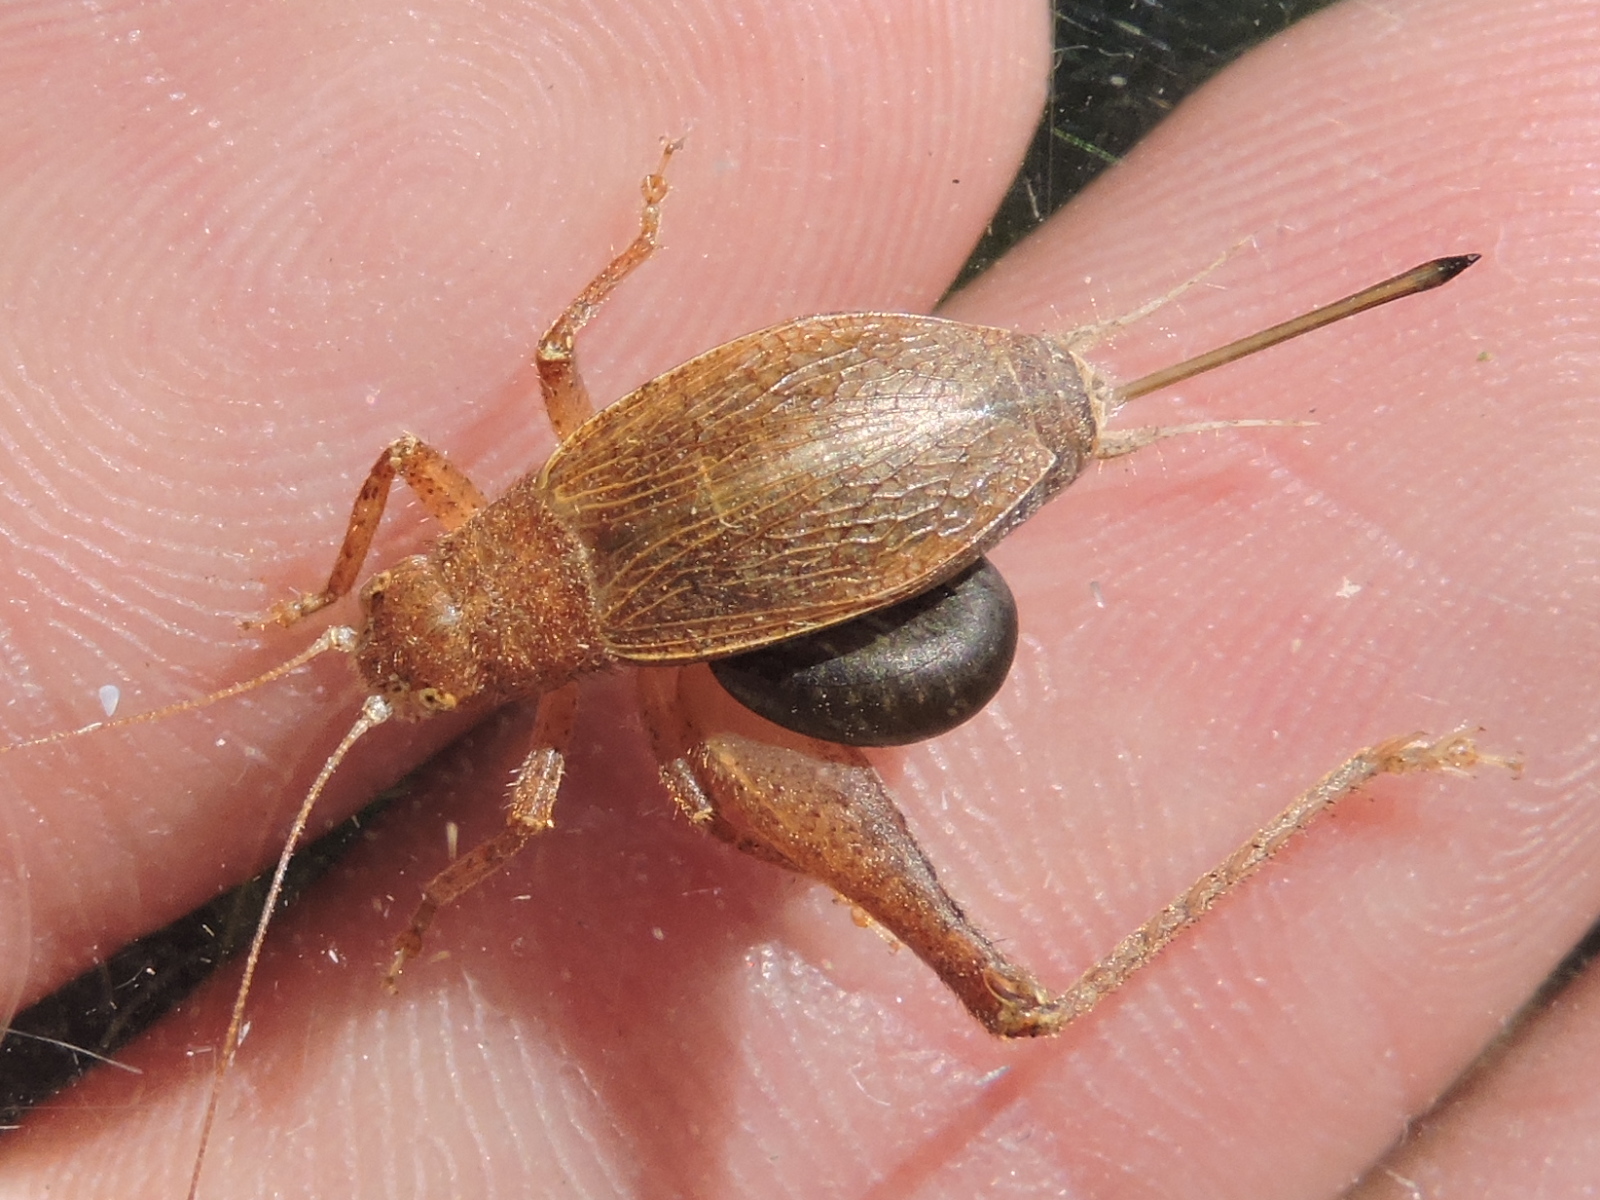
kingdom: Animalia
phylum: Arthropoda
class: Insecta
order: Orthoptera
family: Gryllidae
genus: Hapithus
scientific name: Hapithus agitator
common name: Restless bush cricket
